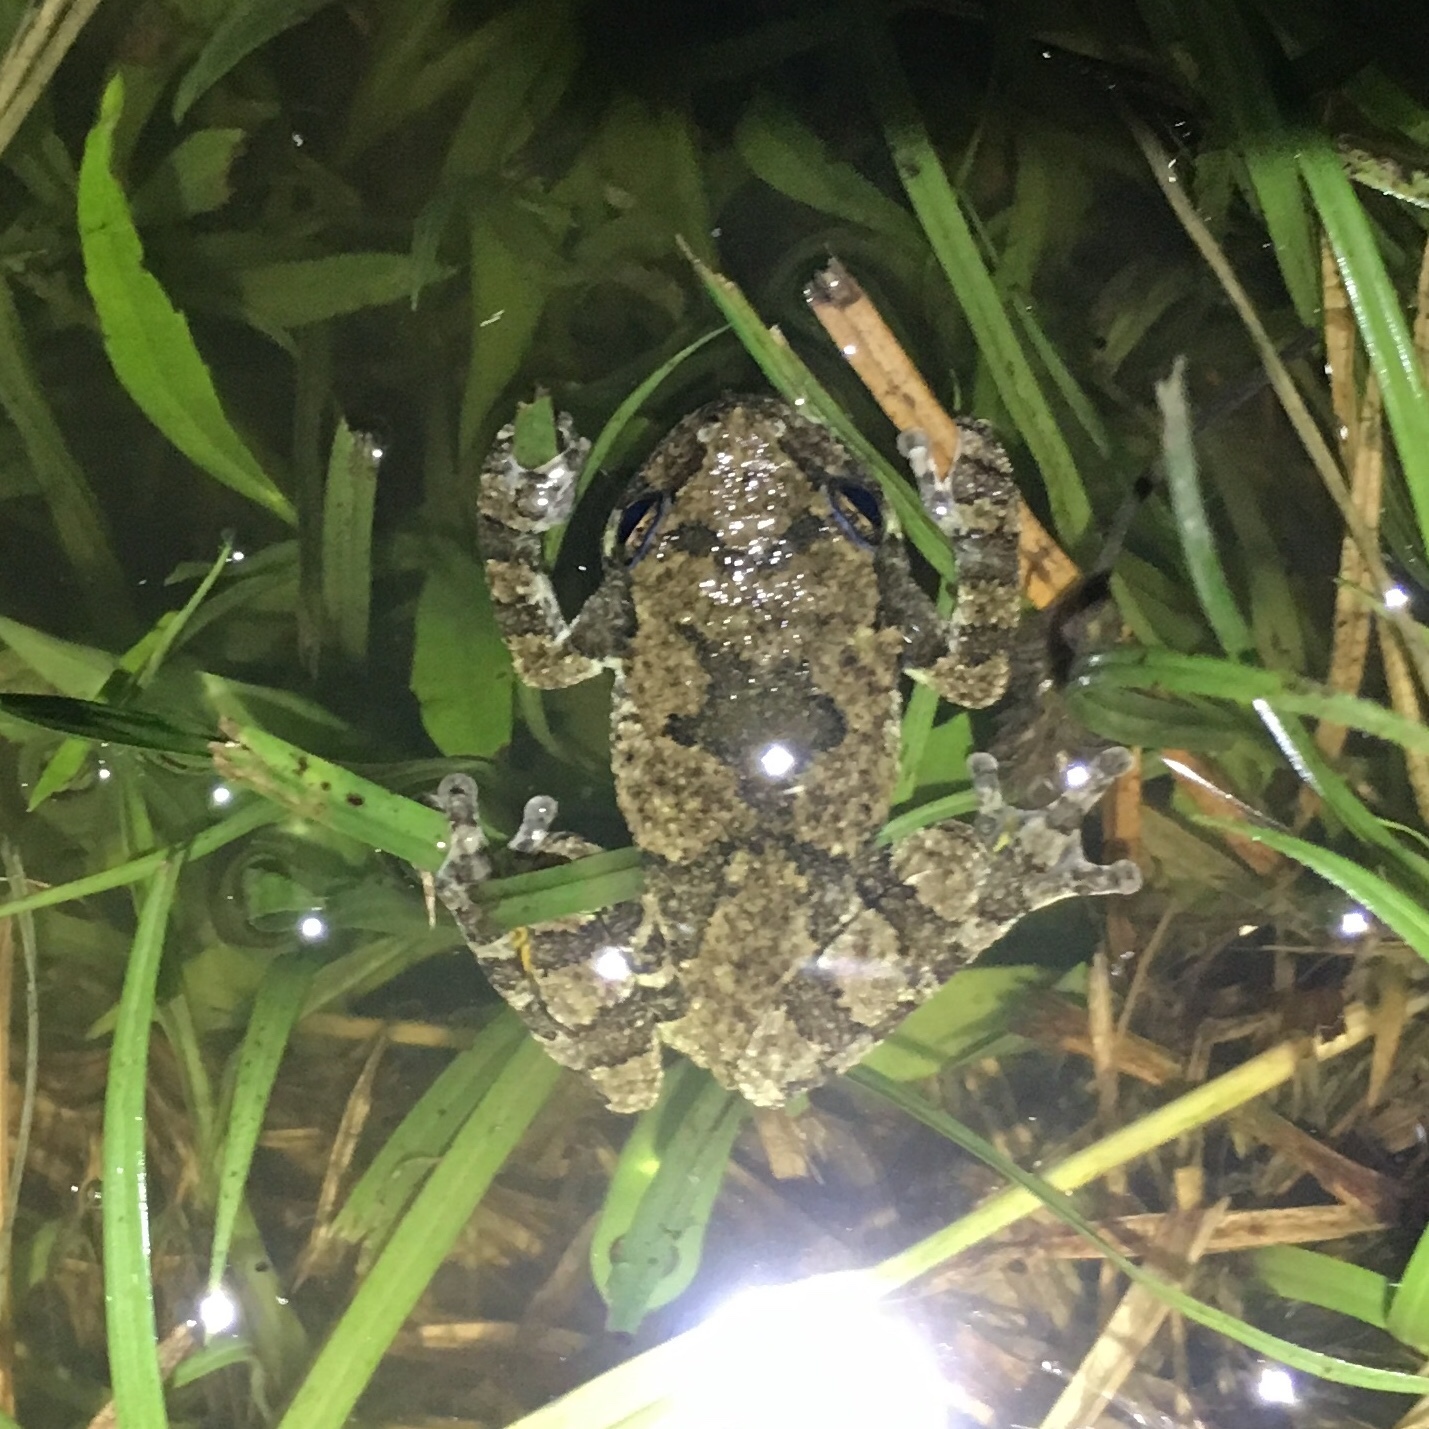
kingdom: Animalia
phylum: Chordata
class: Amphibia
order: Anura
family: Hylidae
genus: Dryophytes
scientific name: Dryophytes chrysoscelis
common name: Cope's gray treefrog
